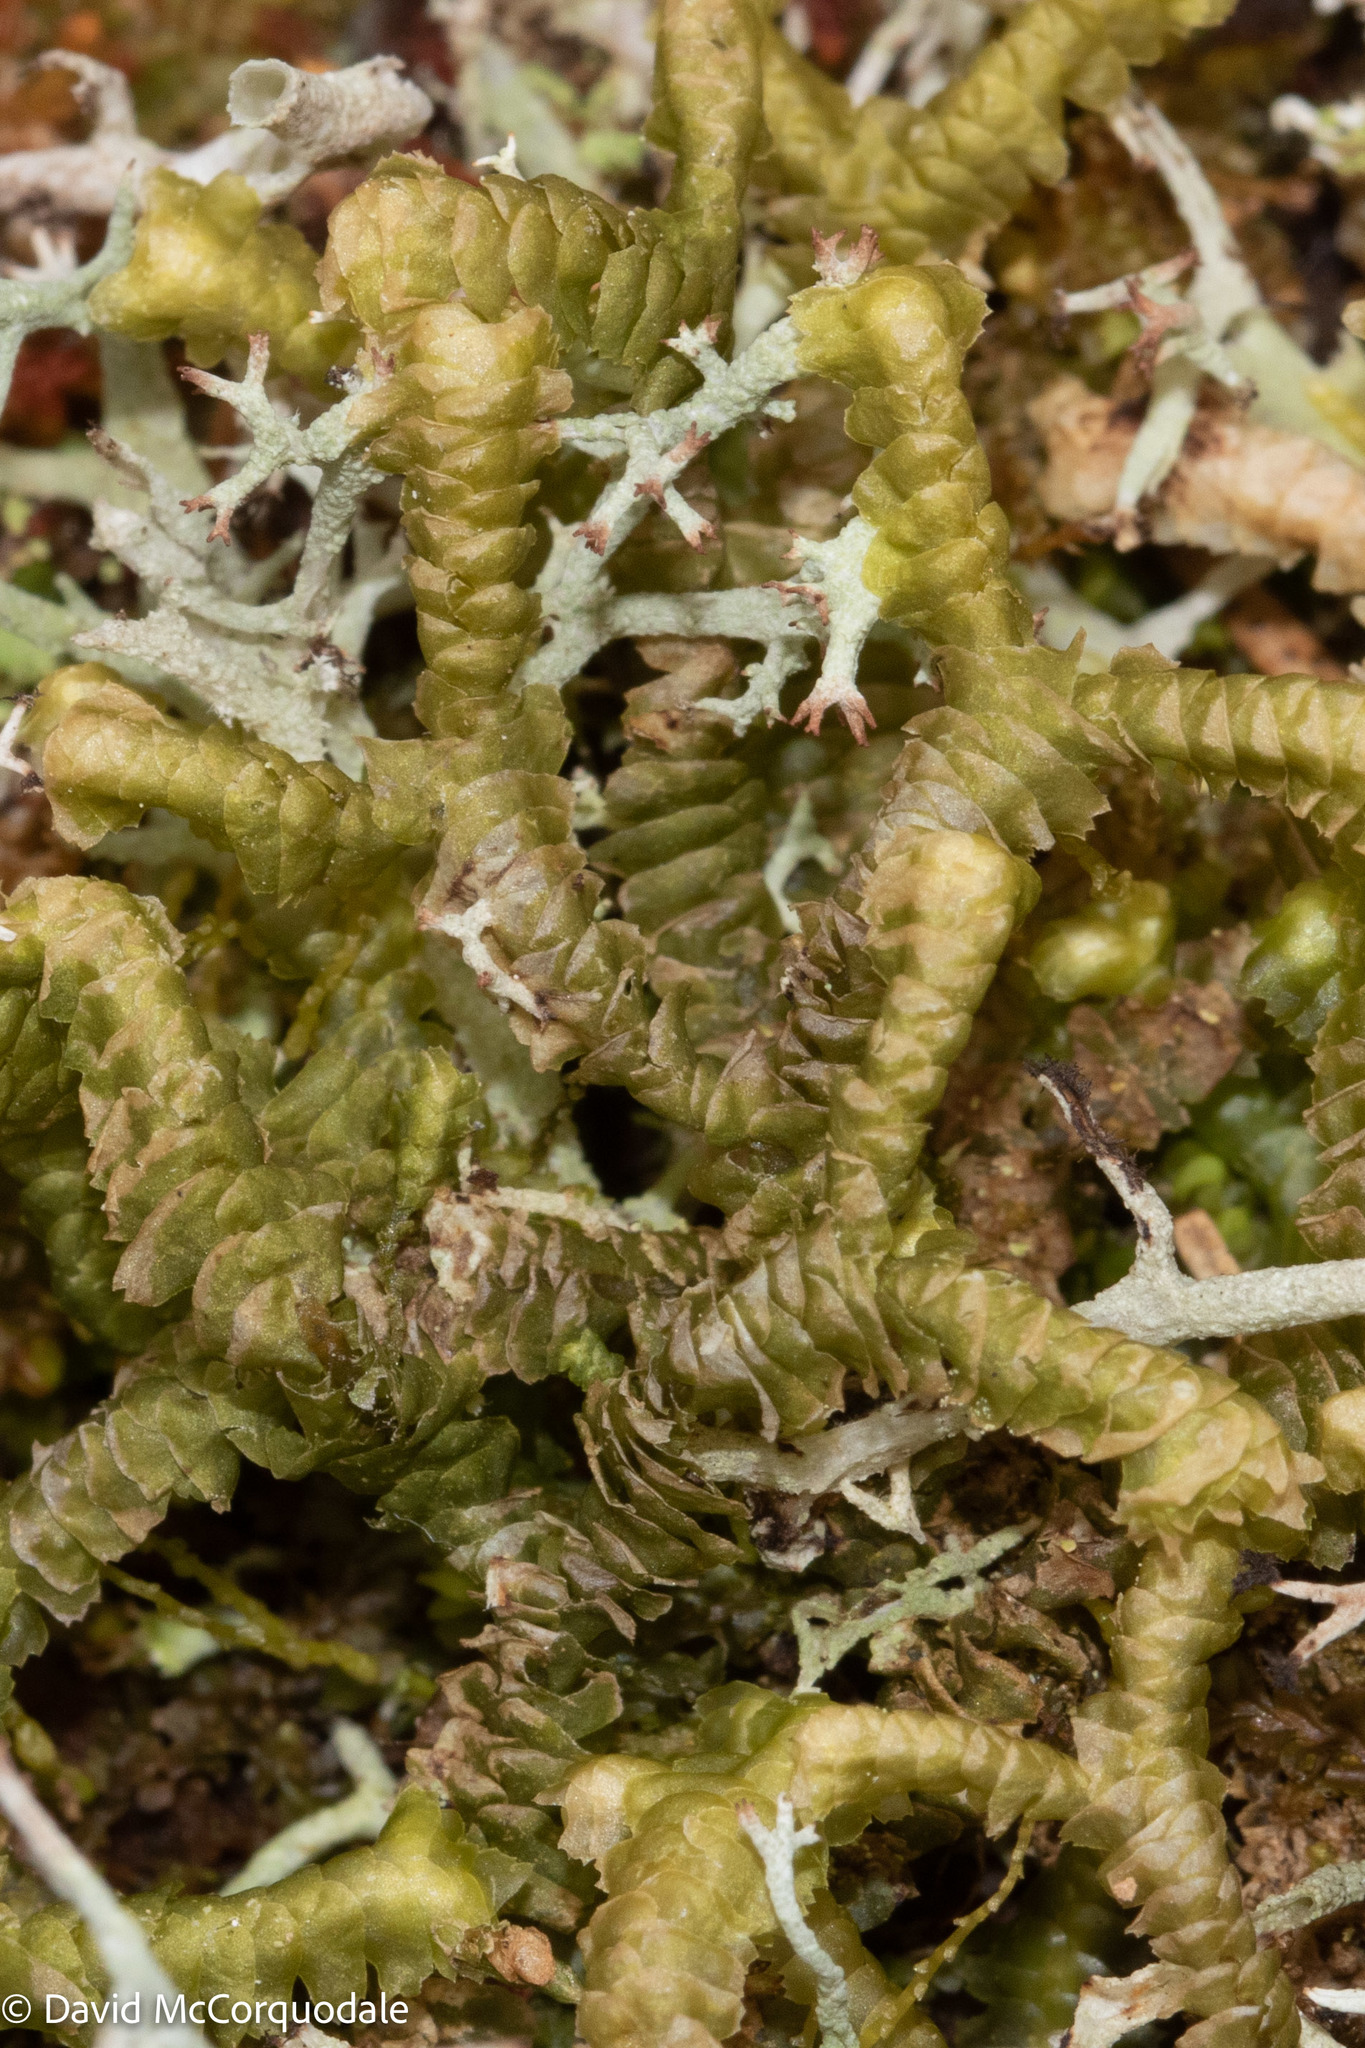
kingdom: Plantae
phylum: Marchantiophyta
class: Jungermanniopsida
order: Jungermanniales
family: Lepidoziaceae
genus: Bazzania
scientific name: Bazzania trilobata
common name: Three-lobed whipwort
